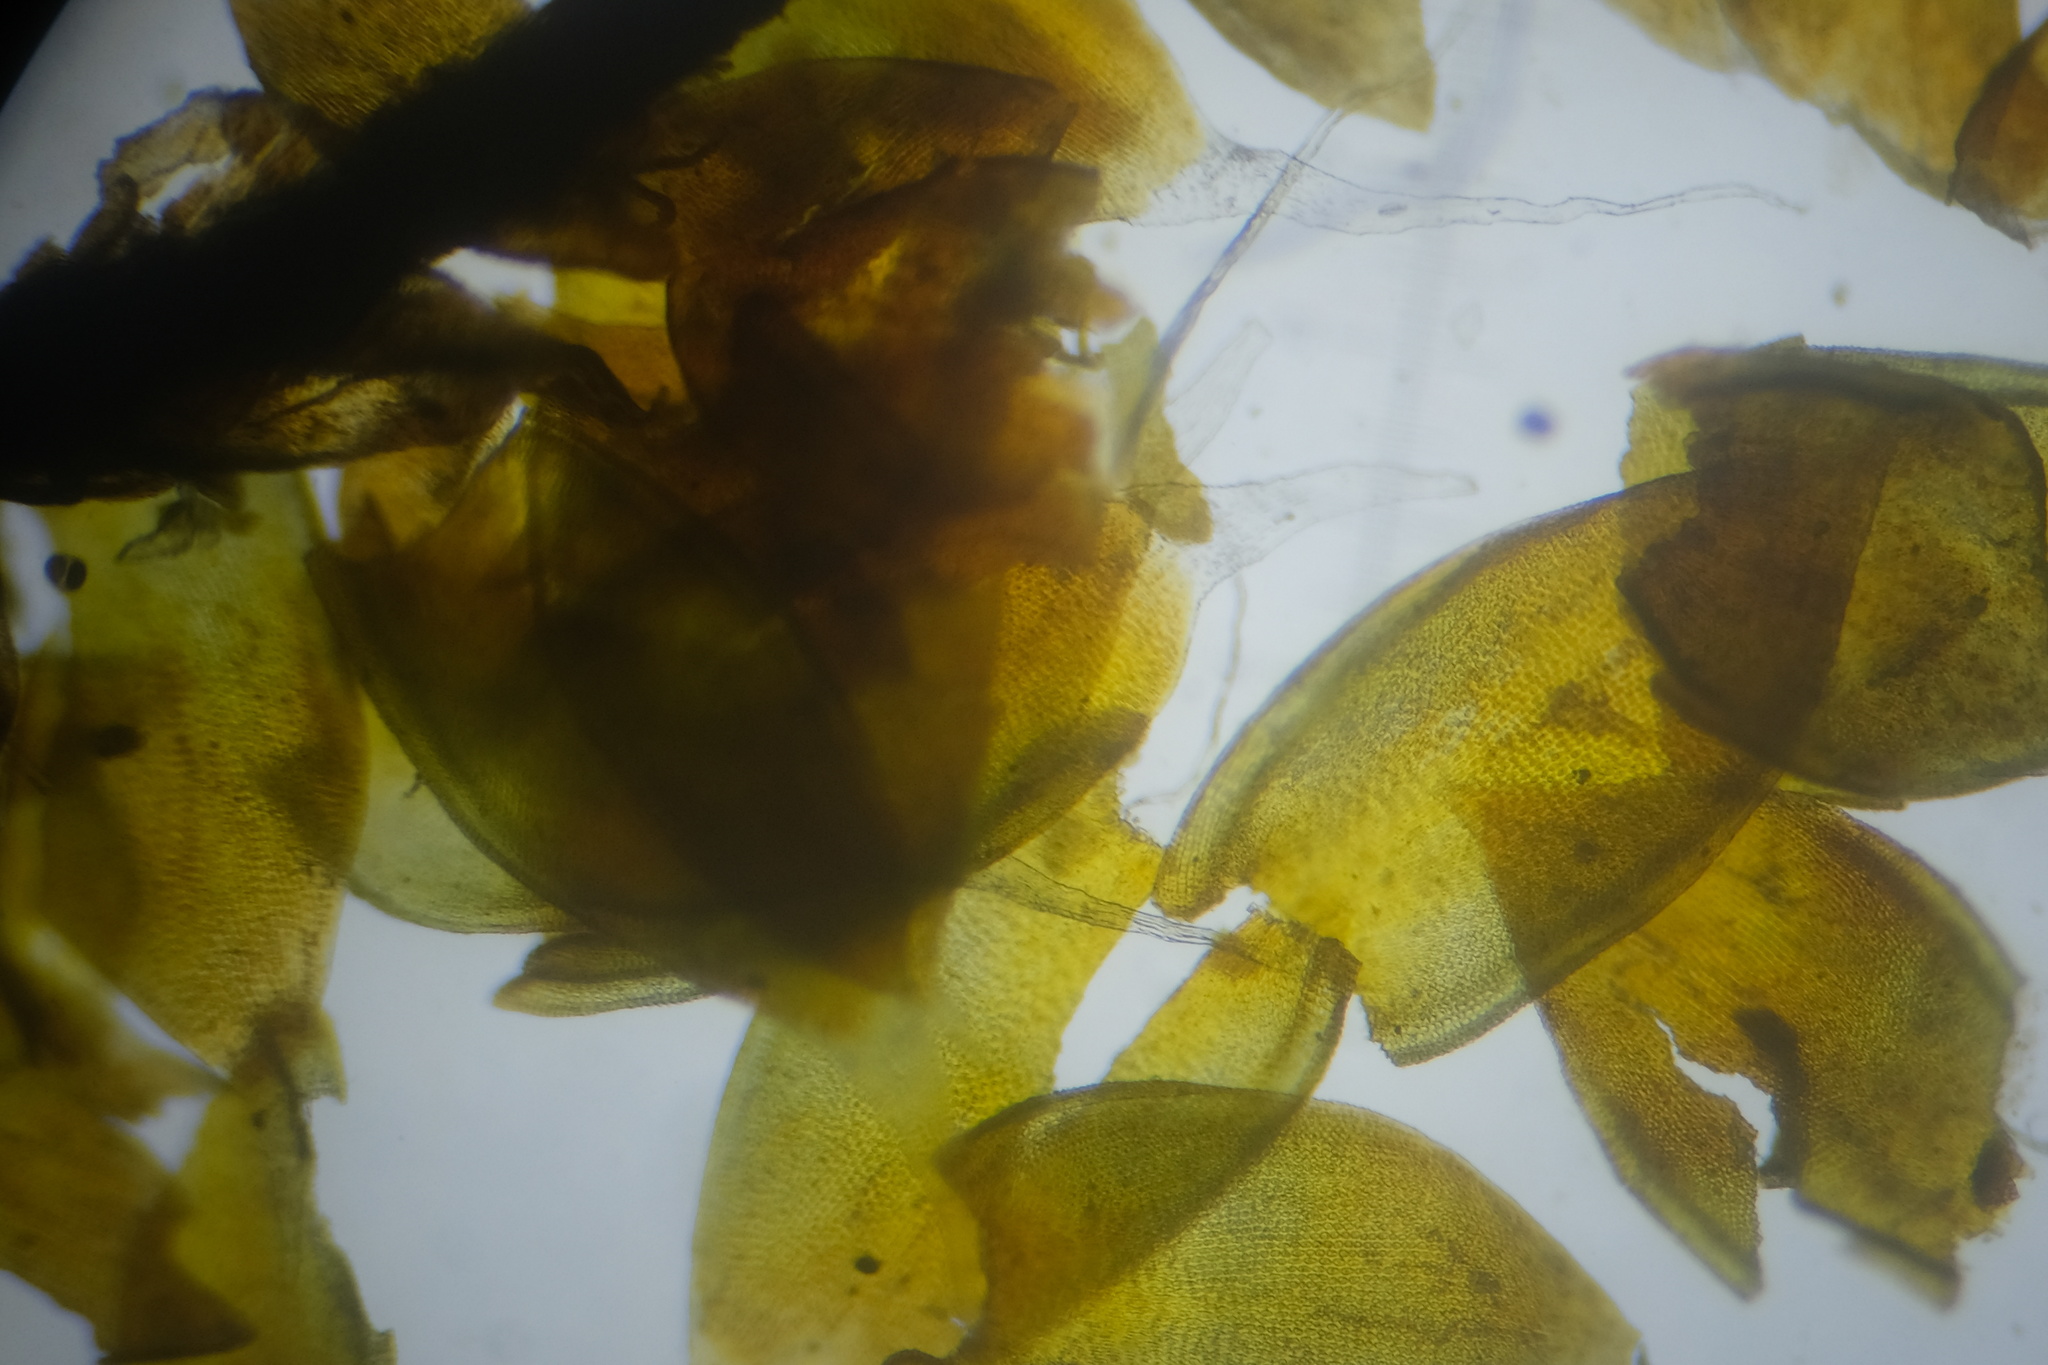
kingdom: Plantae
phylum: Bryophyta
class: Bryopsida
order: Hedwigiales
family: Hedwigiaceae
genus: Pseudobraunia
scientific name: Pseudobraunia californica
